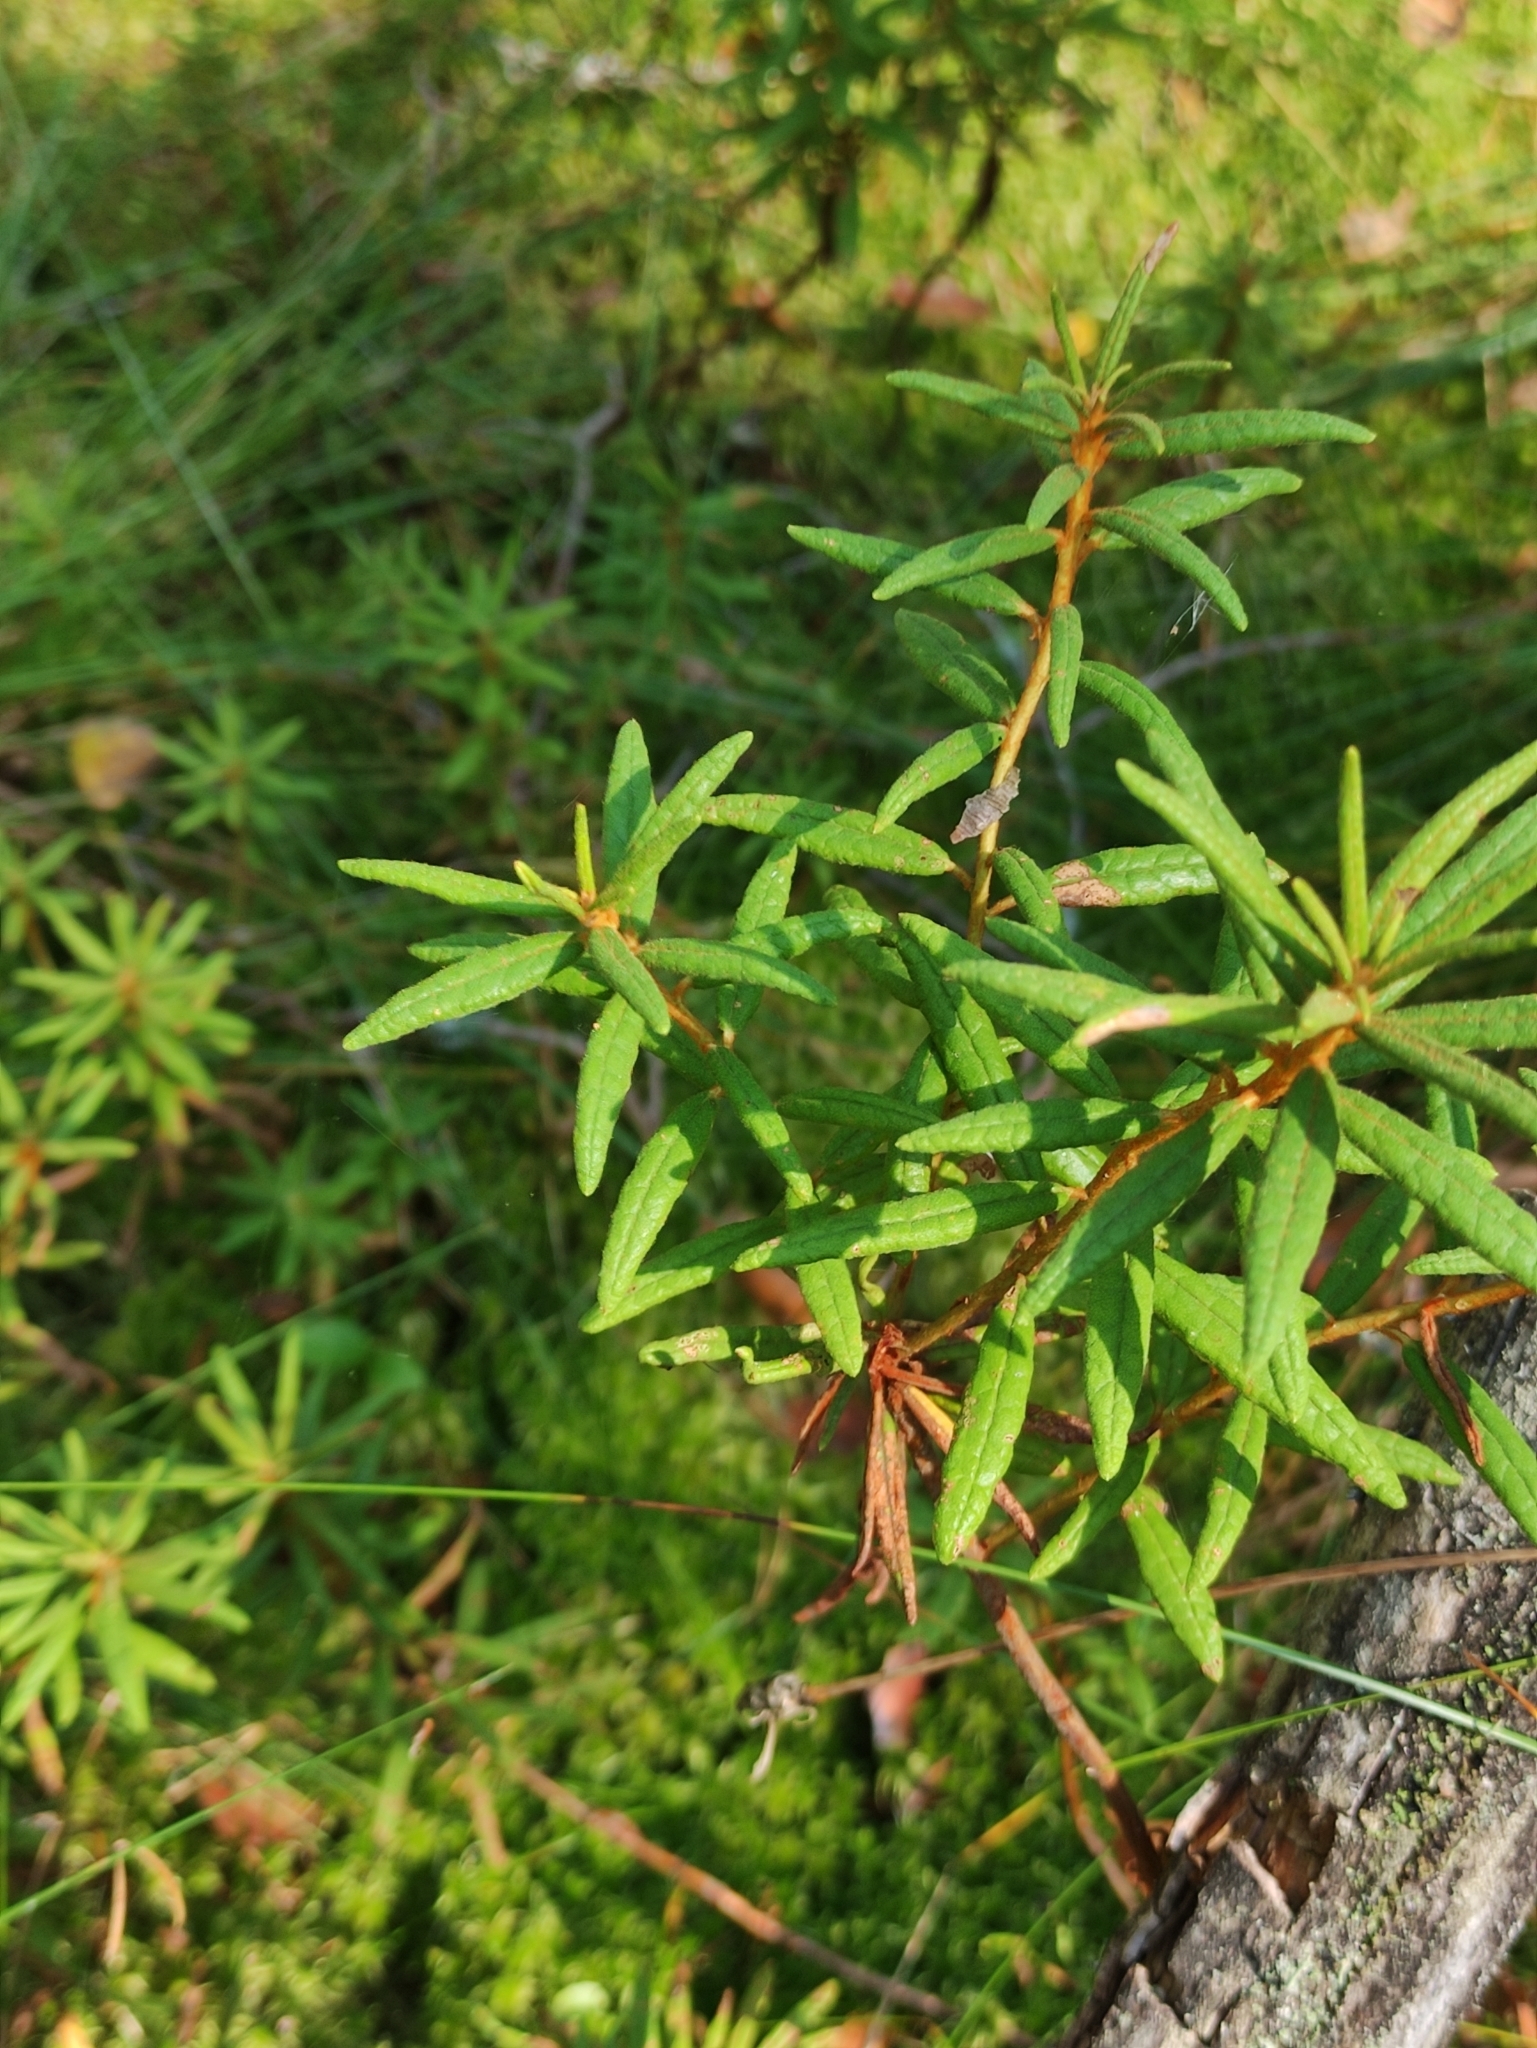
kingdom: Plantae
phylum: Tracheophyta
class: Magnoliopsida
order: Ericales
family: Ericaceae
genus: Rhododendron
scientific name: Rhododendron tomentosum
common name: Marsh labrador tea
